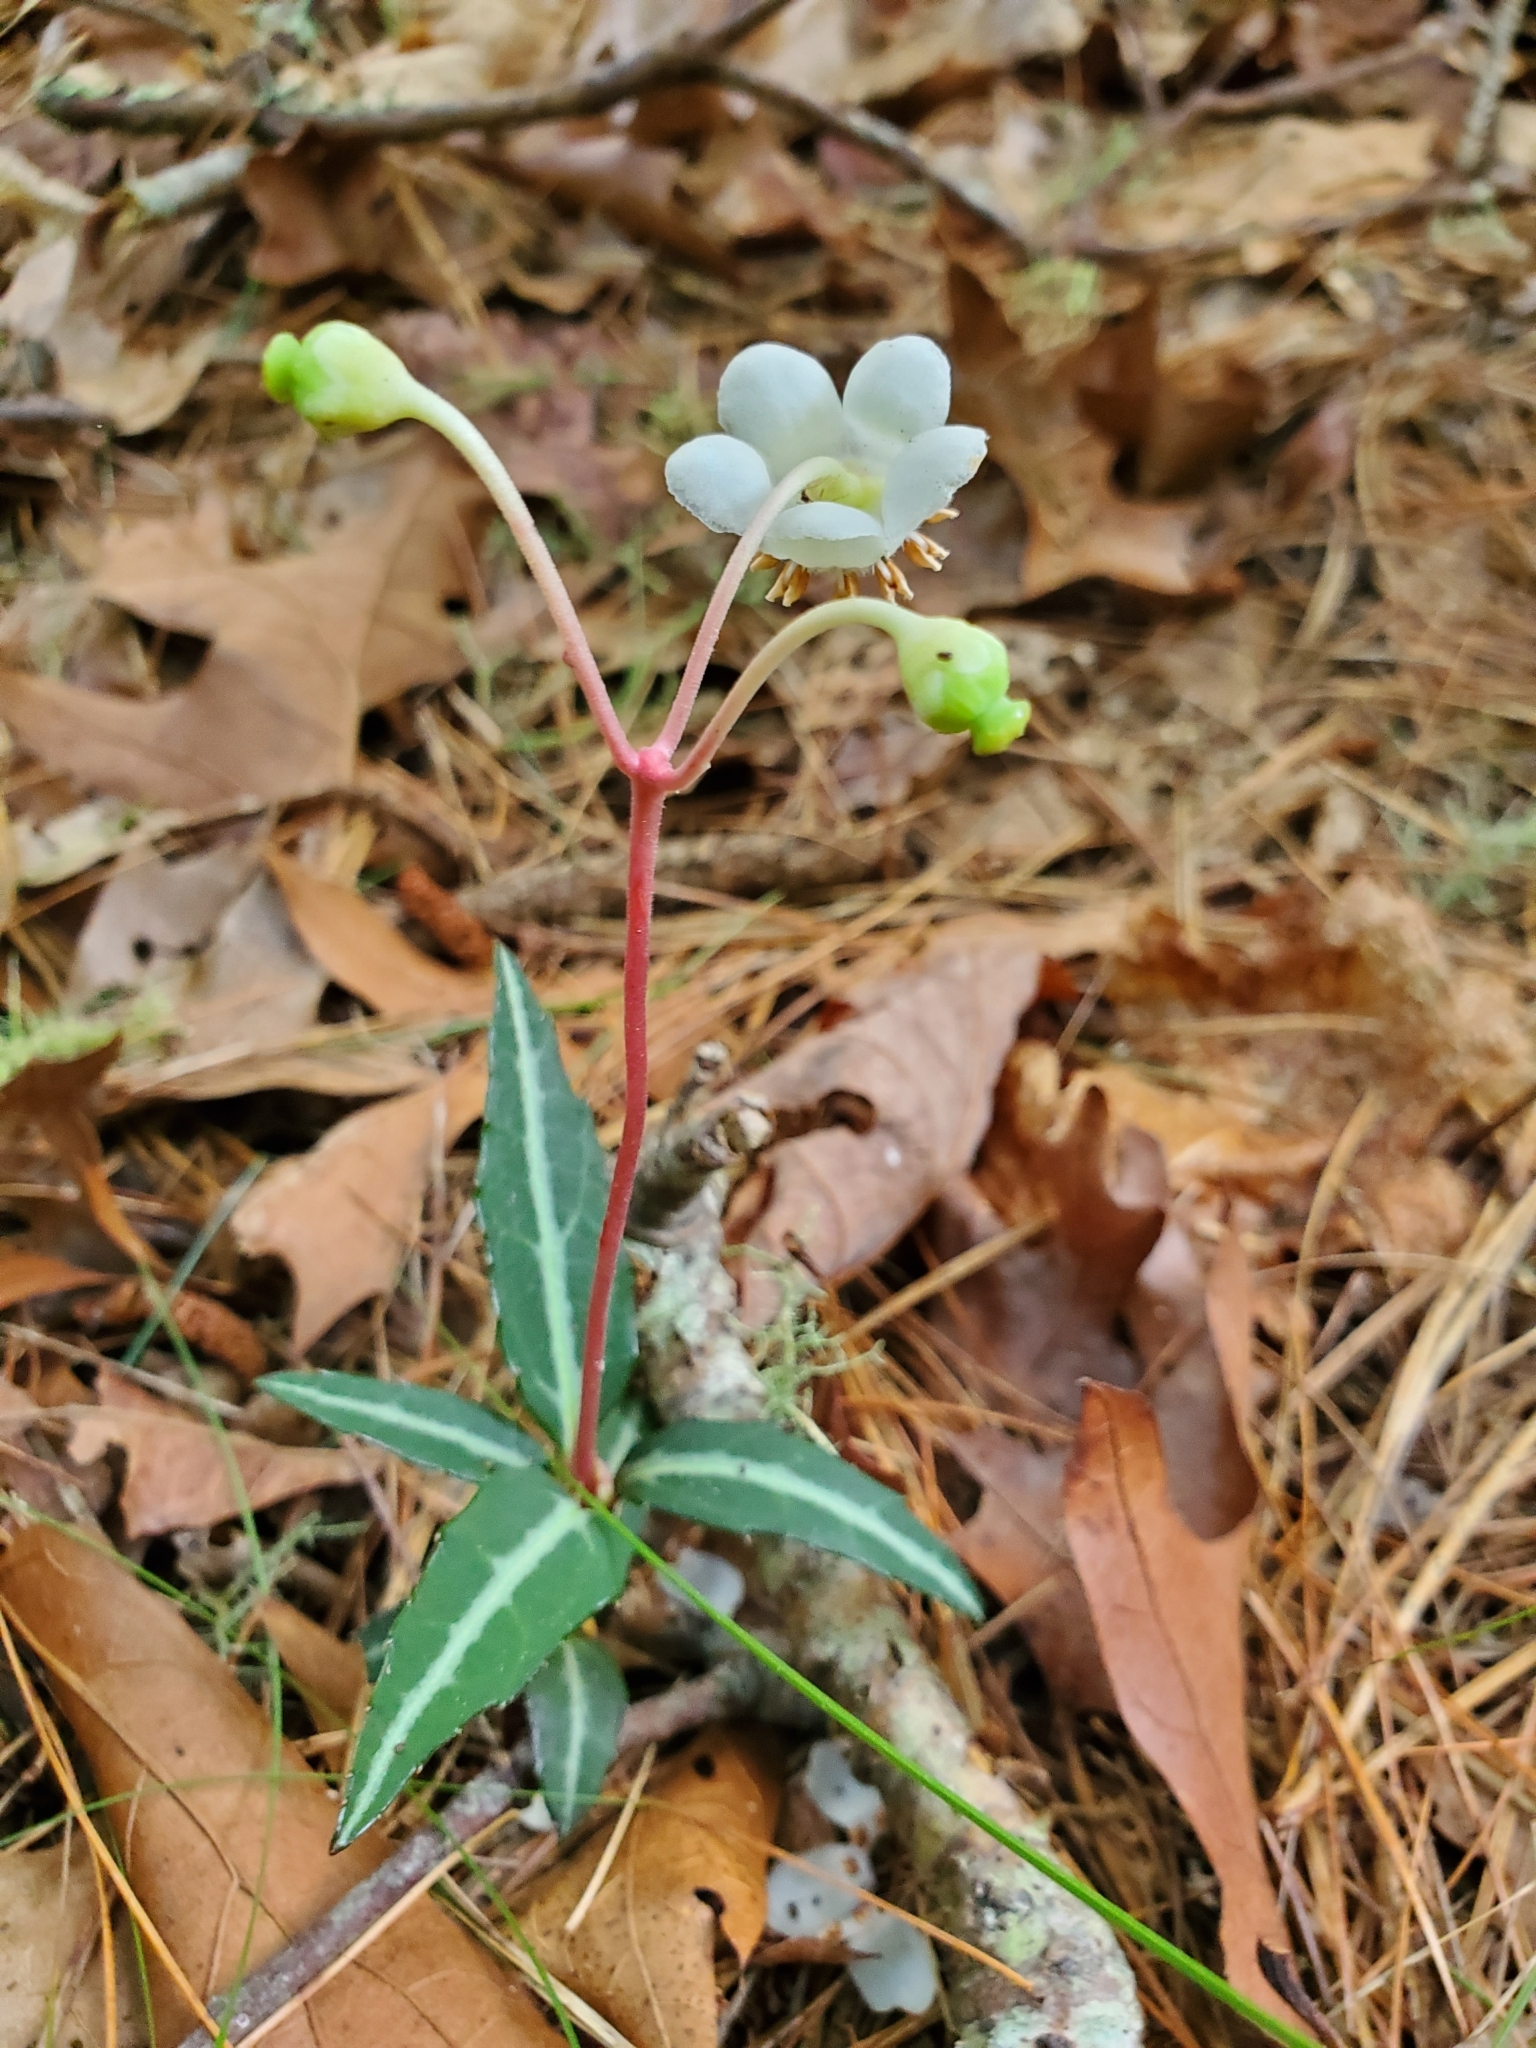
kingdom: Plantae
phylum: Tracheophyta
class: Magnoliopsida
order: Ericales
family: Ericaceae
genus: Chimaphila
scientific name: Chimaphila maculata
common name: Spotted pipsissewa
